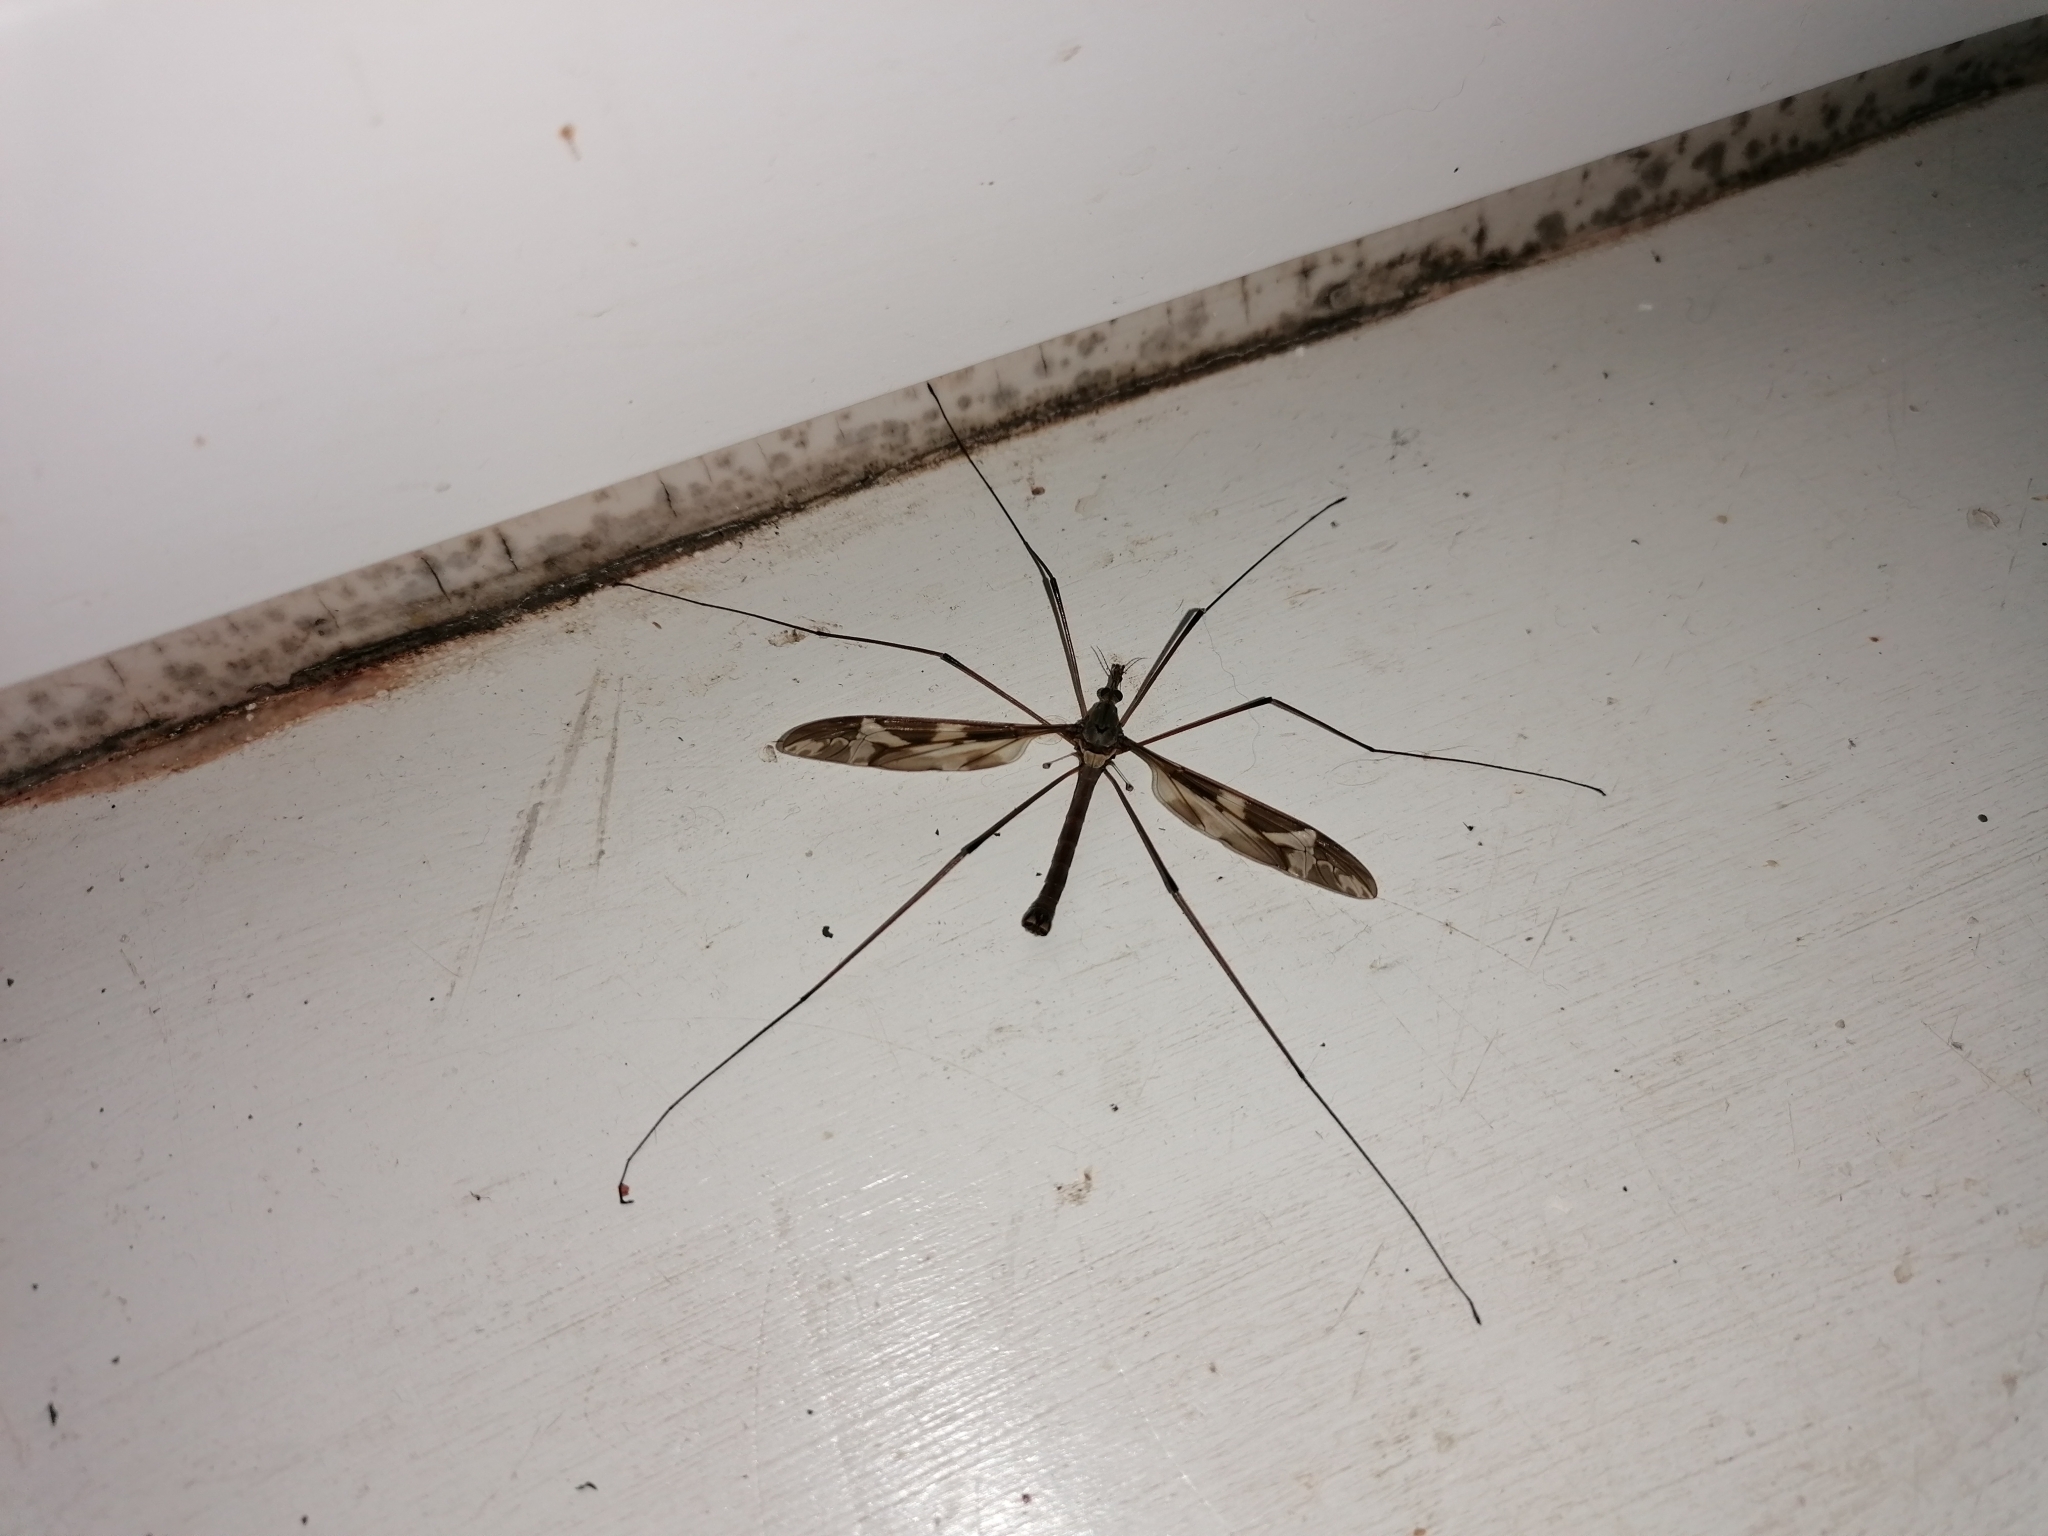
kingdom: Animalia
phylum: Arthropoda
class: Insecta
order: Diptera
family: Tipulidae
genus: Tipula
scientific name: Tipula maxima
